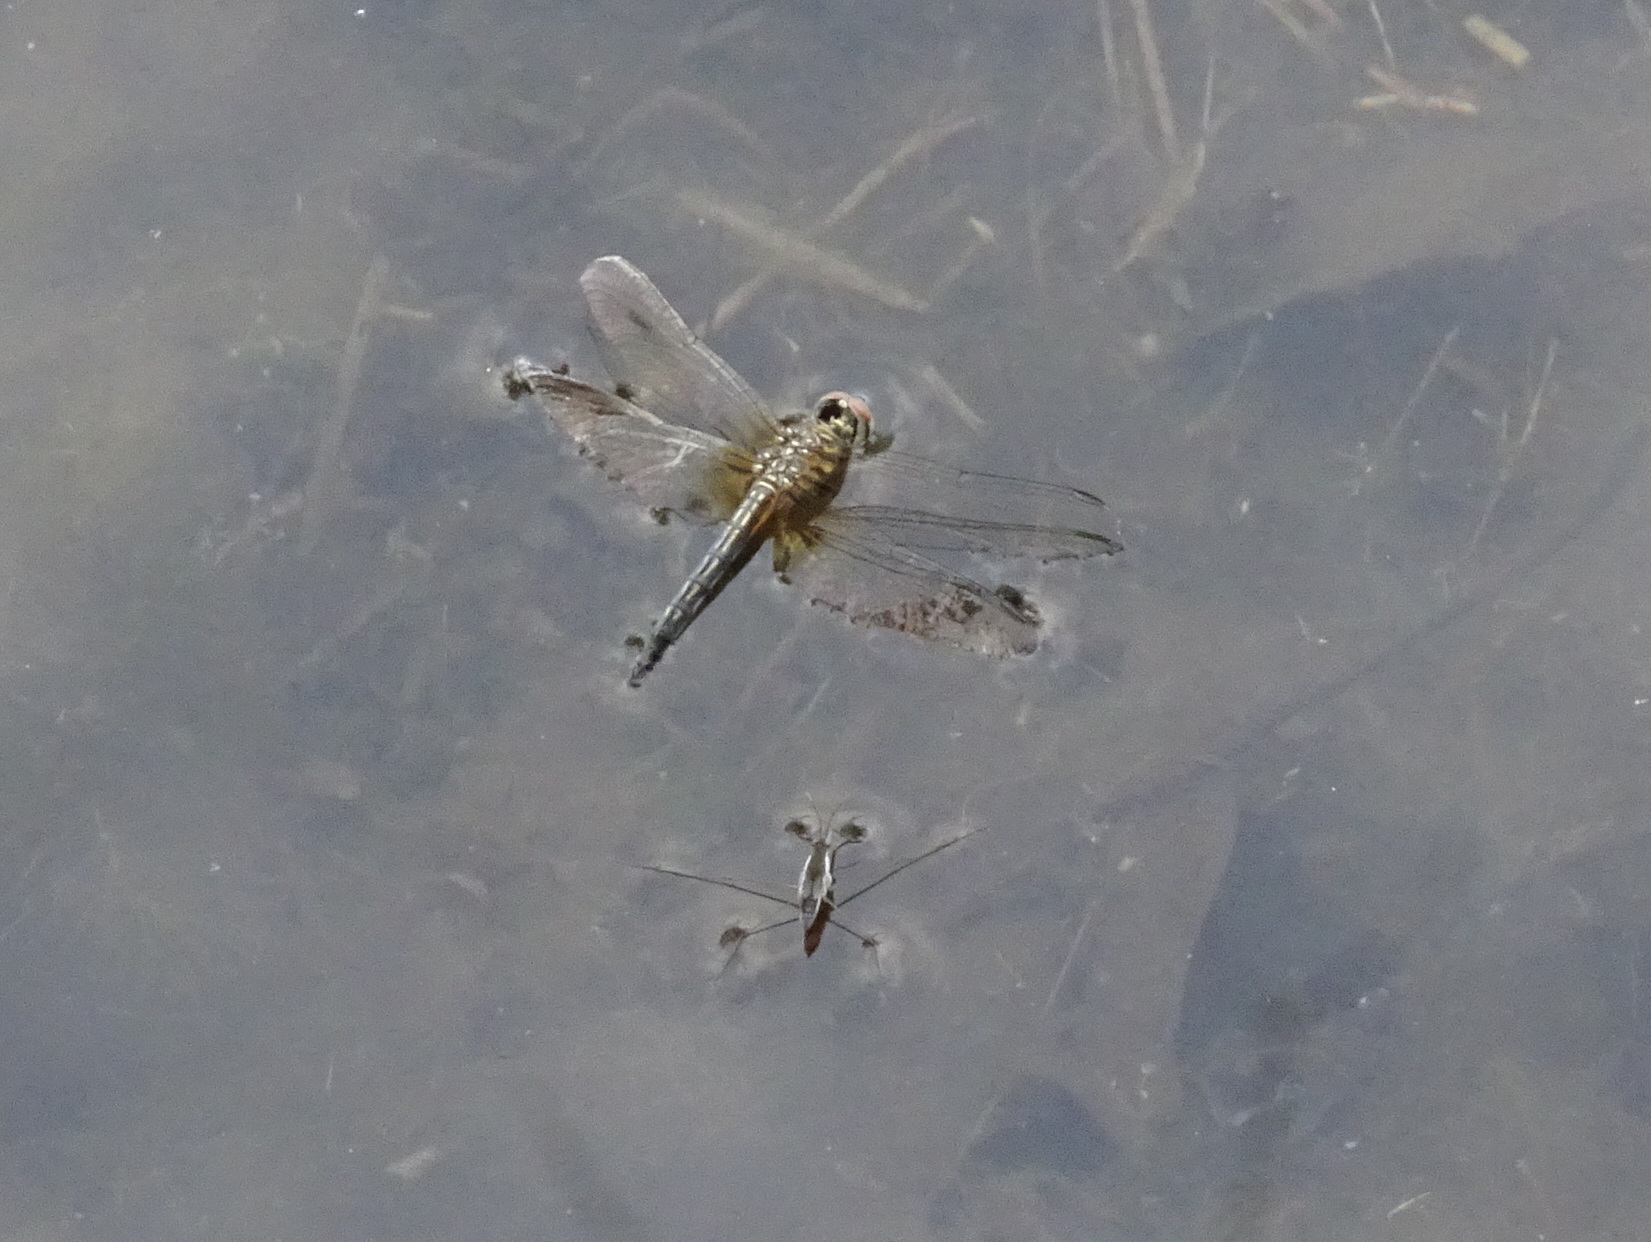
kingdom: Animalia
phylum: Arthropoda
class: Insecta
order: Hemiptera
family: Gerridae
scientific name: Gerridae
